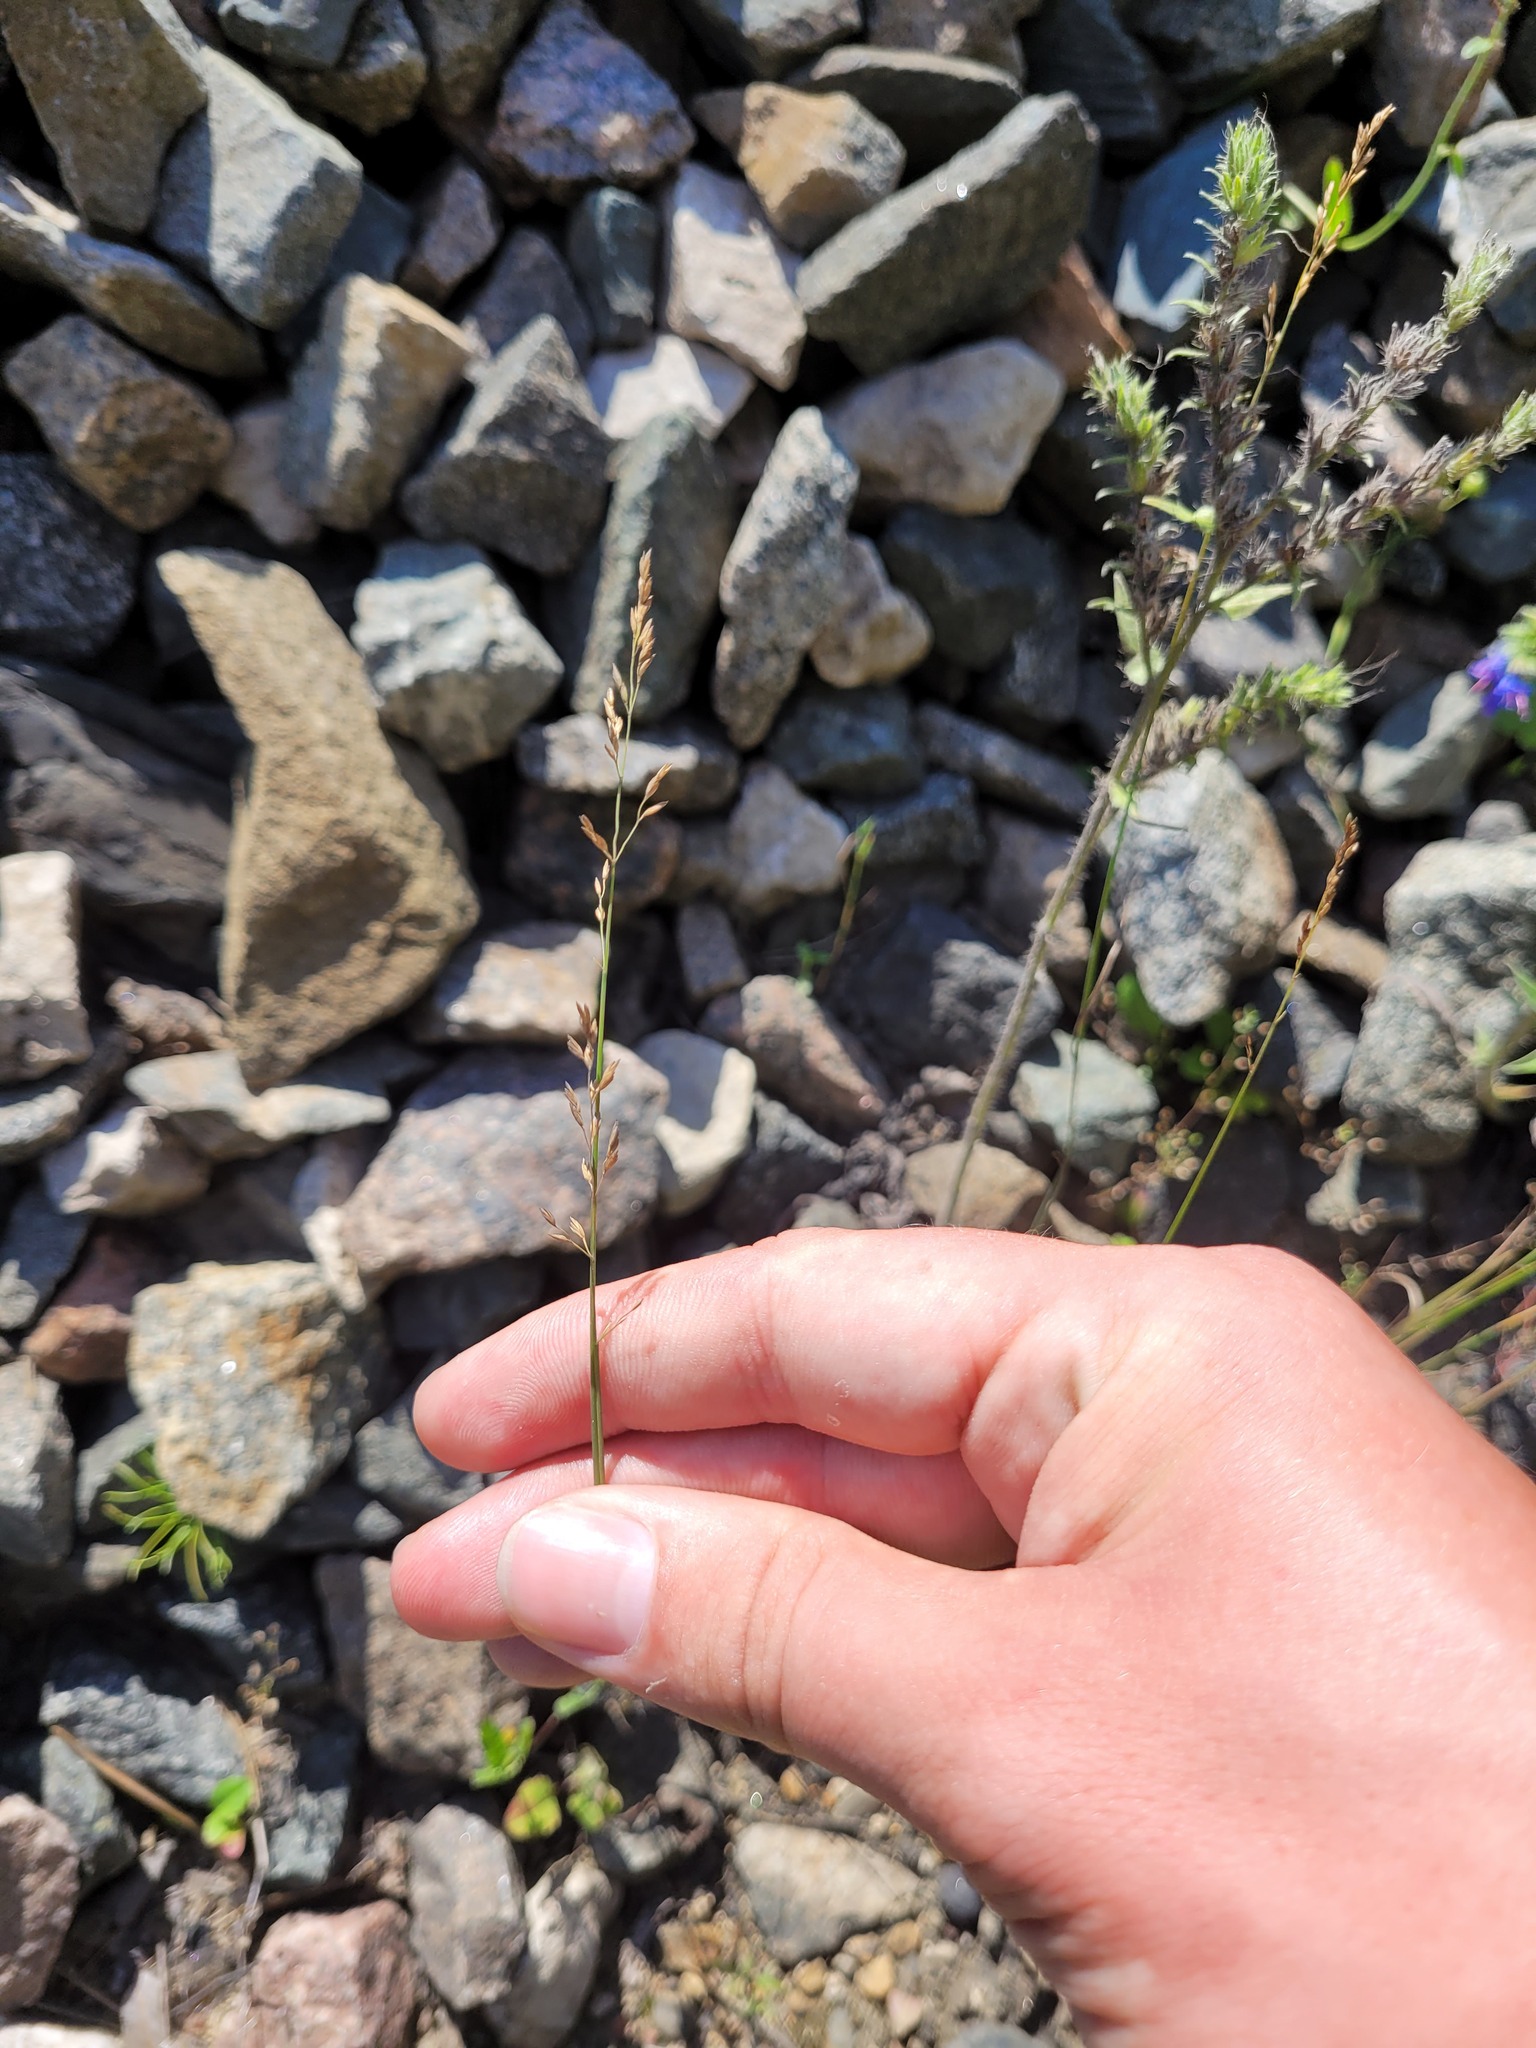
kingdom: Plantae
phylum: Tracheophyta
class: Liliopsida
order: Poales
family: Poaceae
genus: Poa
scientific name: Poa compressa
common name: Canada bluegrass
